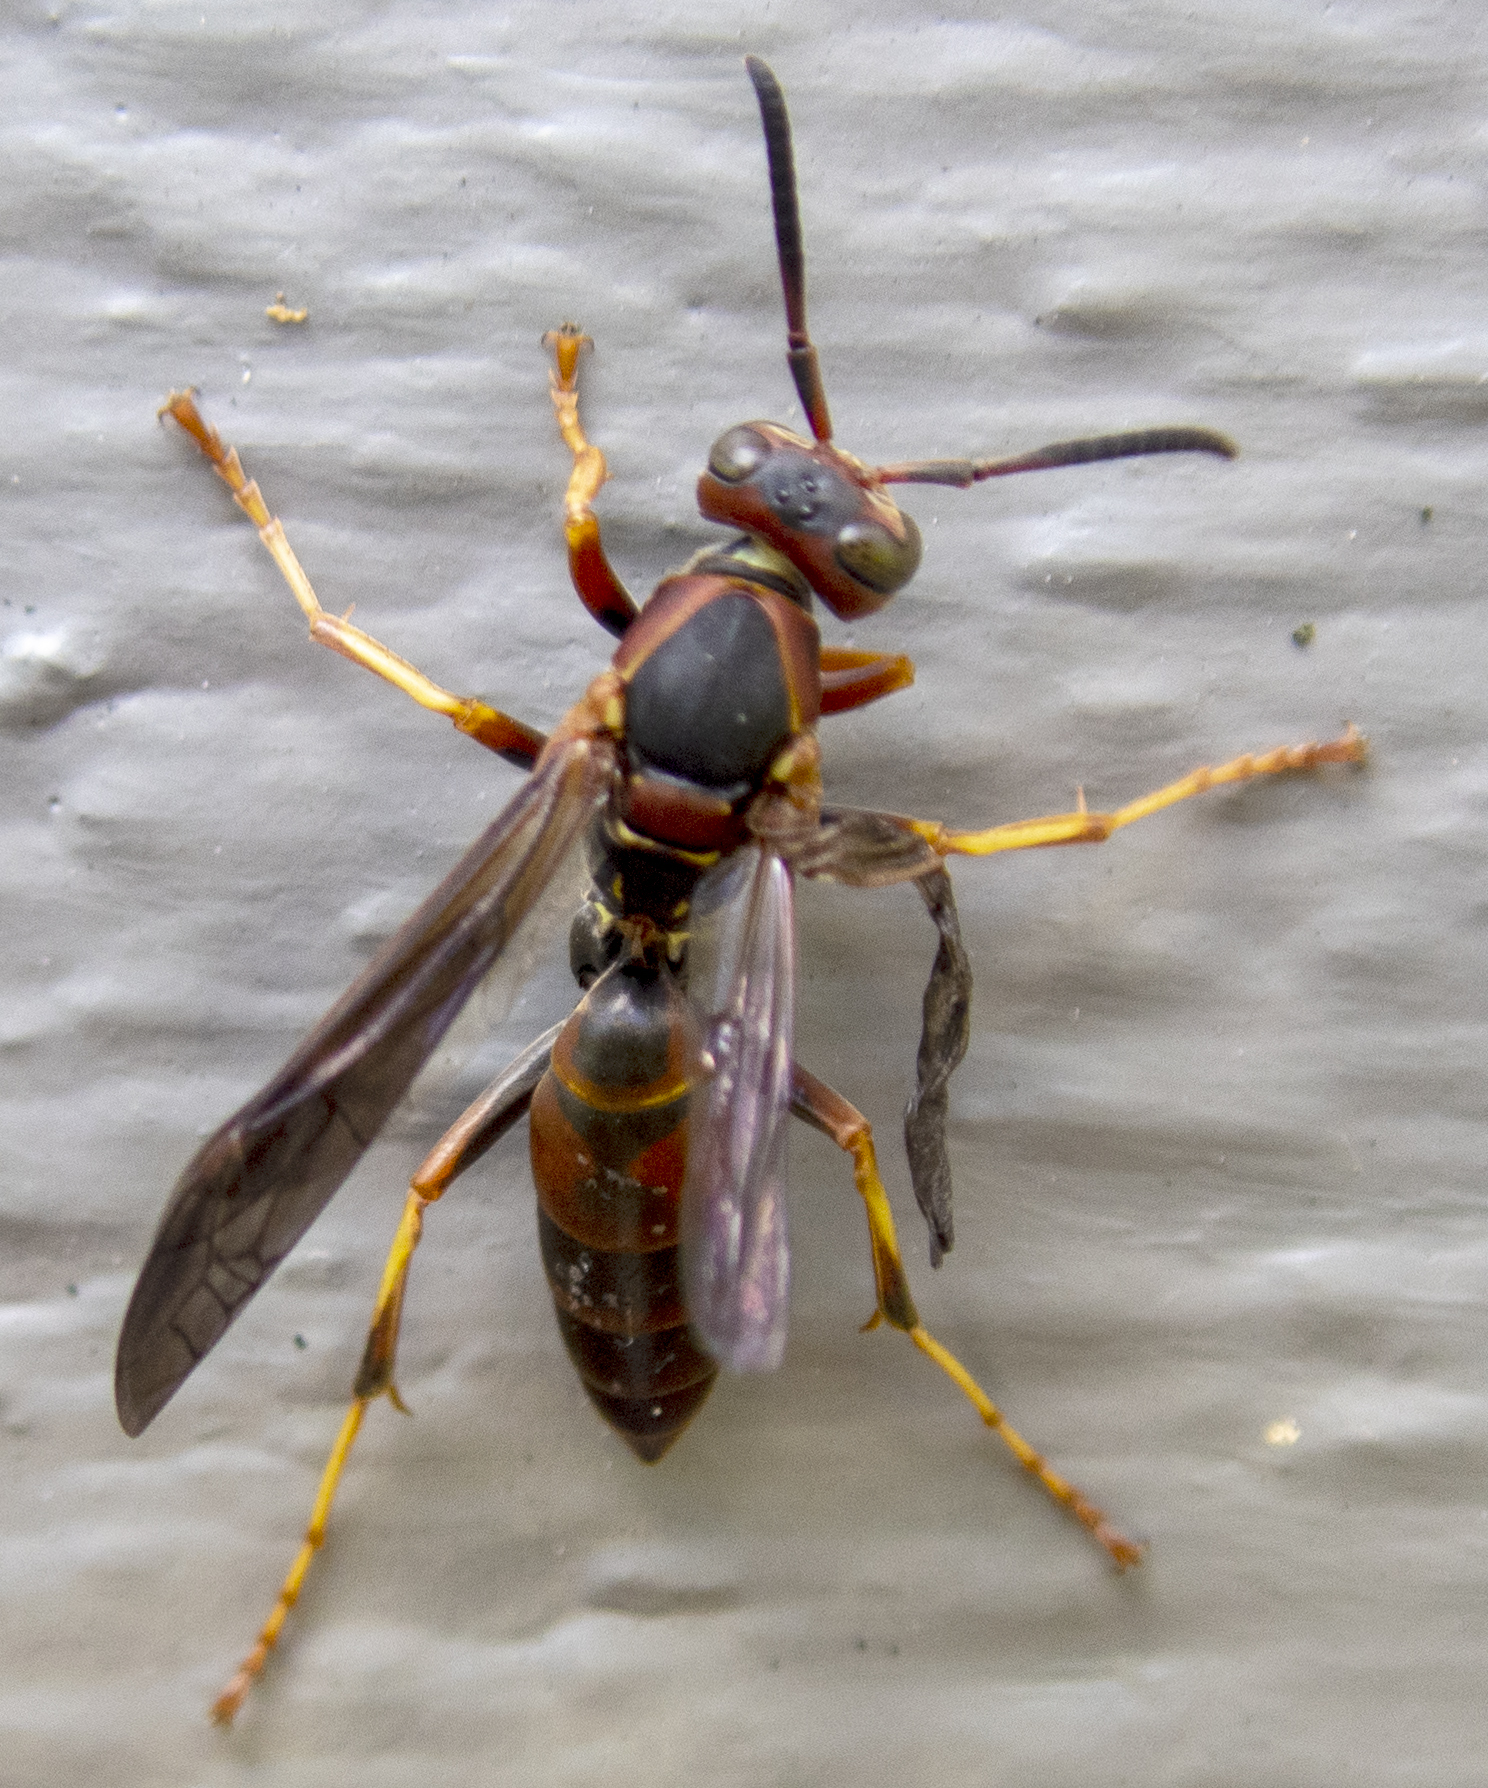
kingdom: Animalia
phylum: Arthropoda
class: Insecta
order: Hymenoptera
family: Eumenidae
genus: Polistes
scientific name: Polistes fuscatus
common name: Dark paper wasp
